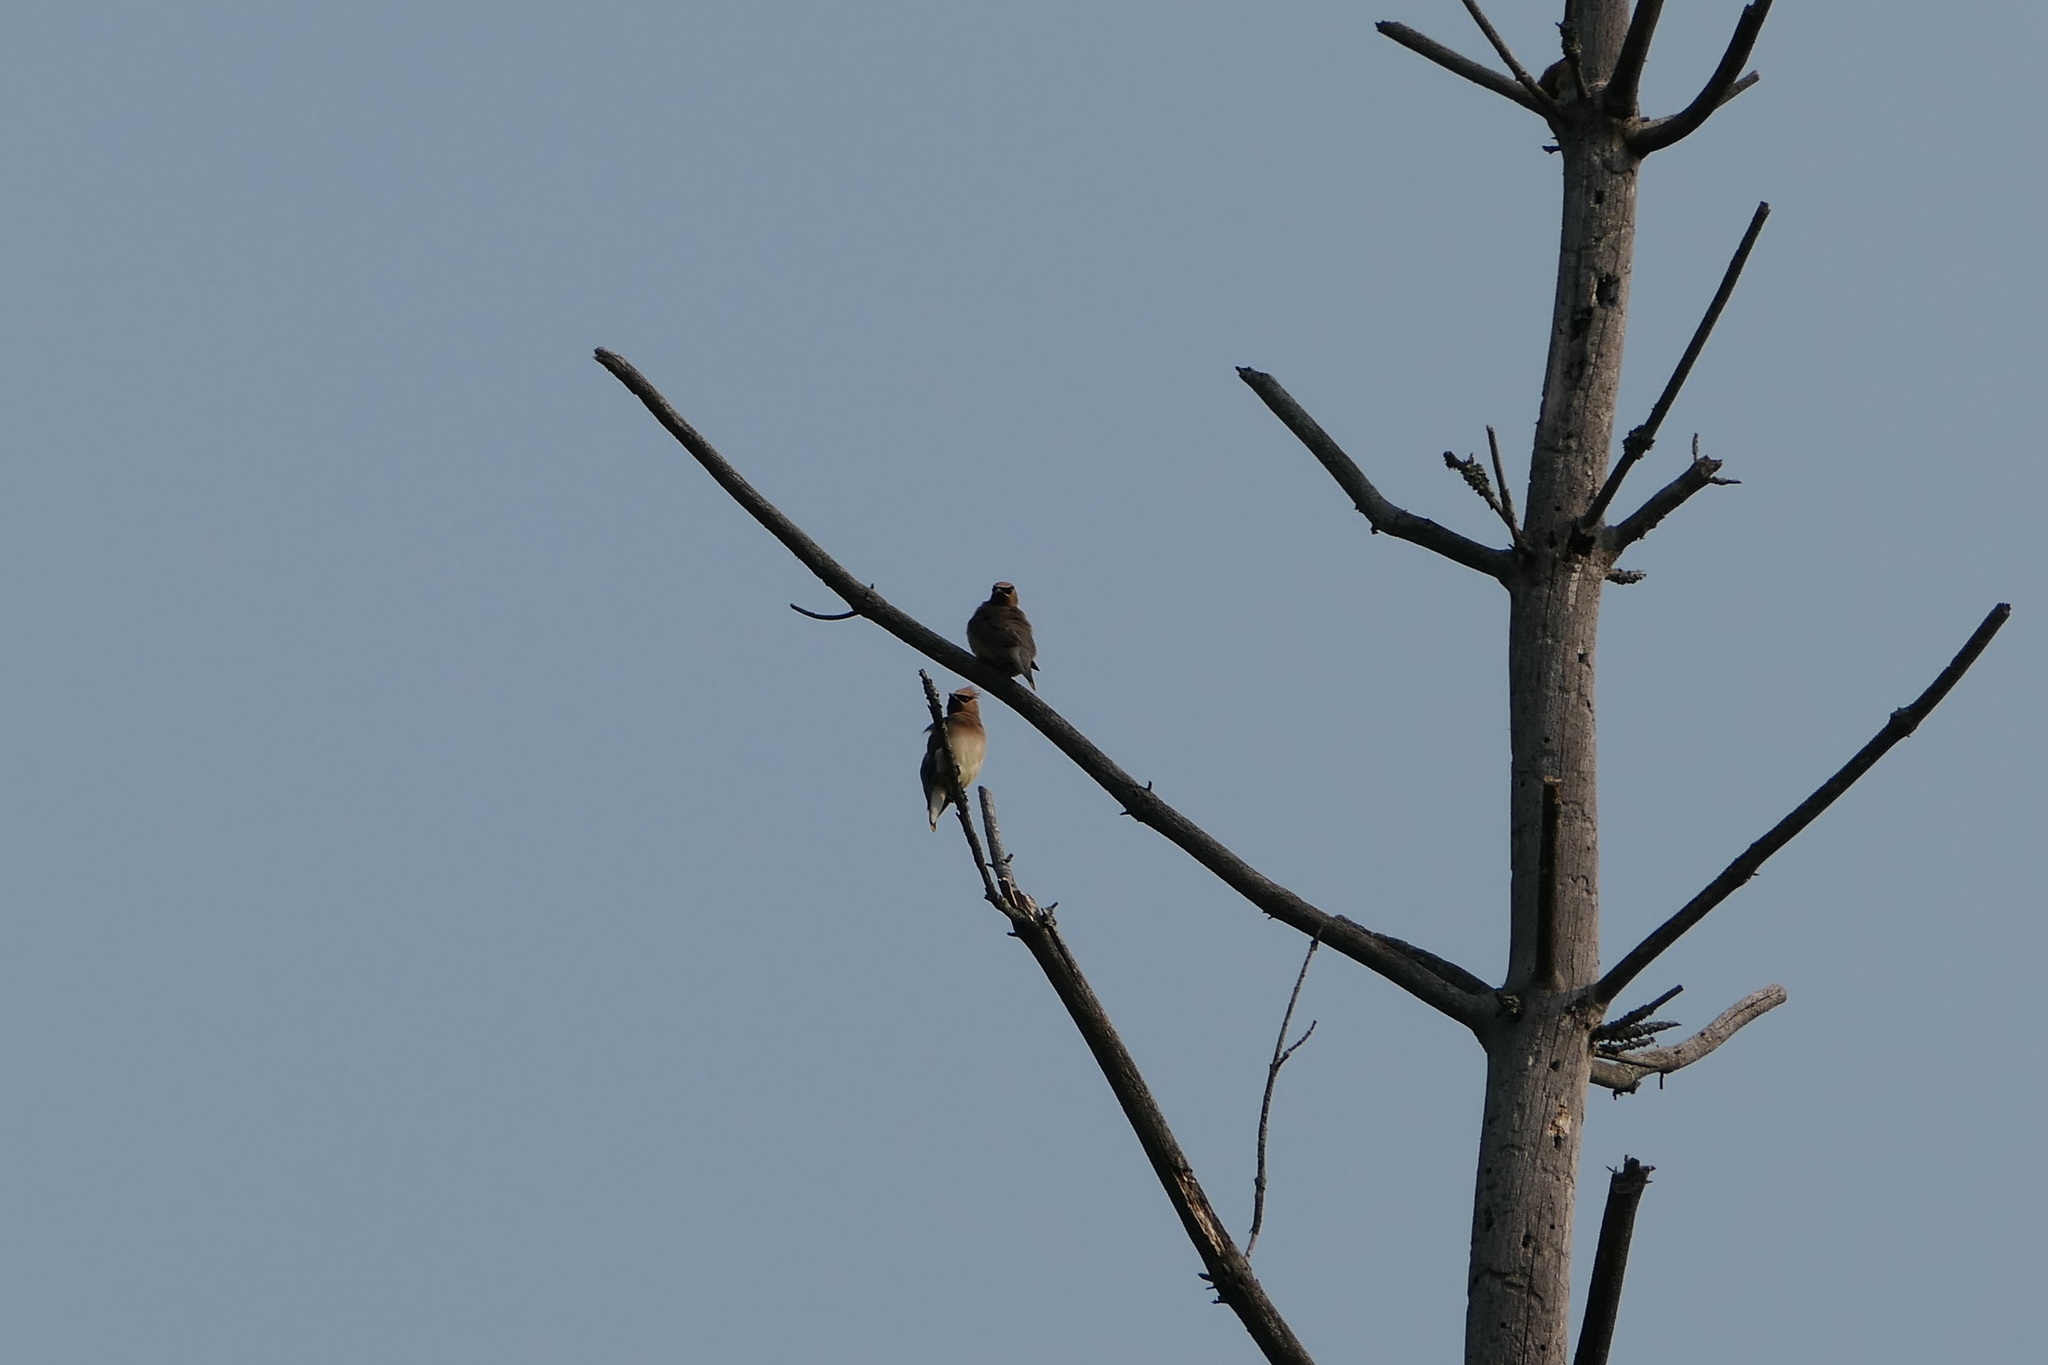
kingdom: Animalia
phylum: Chordata
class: Aves
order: Passeriformes
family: Bombycillidae
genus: Bombycilla
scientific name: Bombycilla cedrorum
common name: Cedar waxwing
